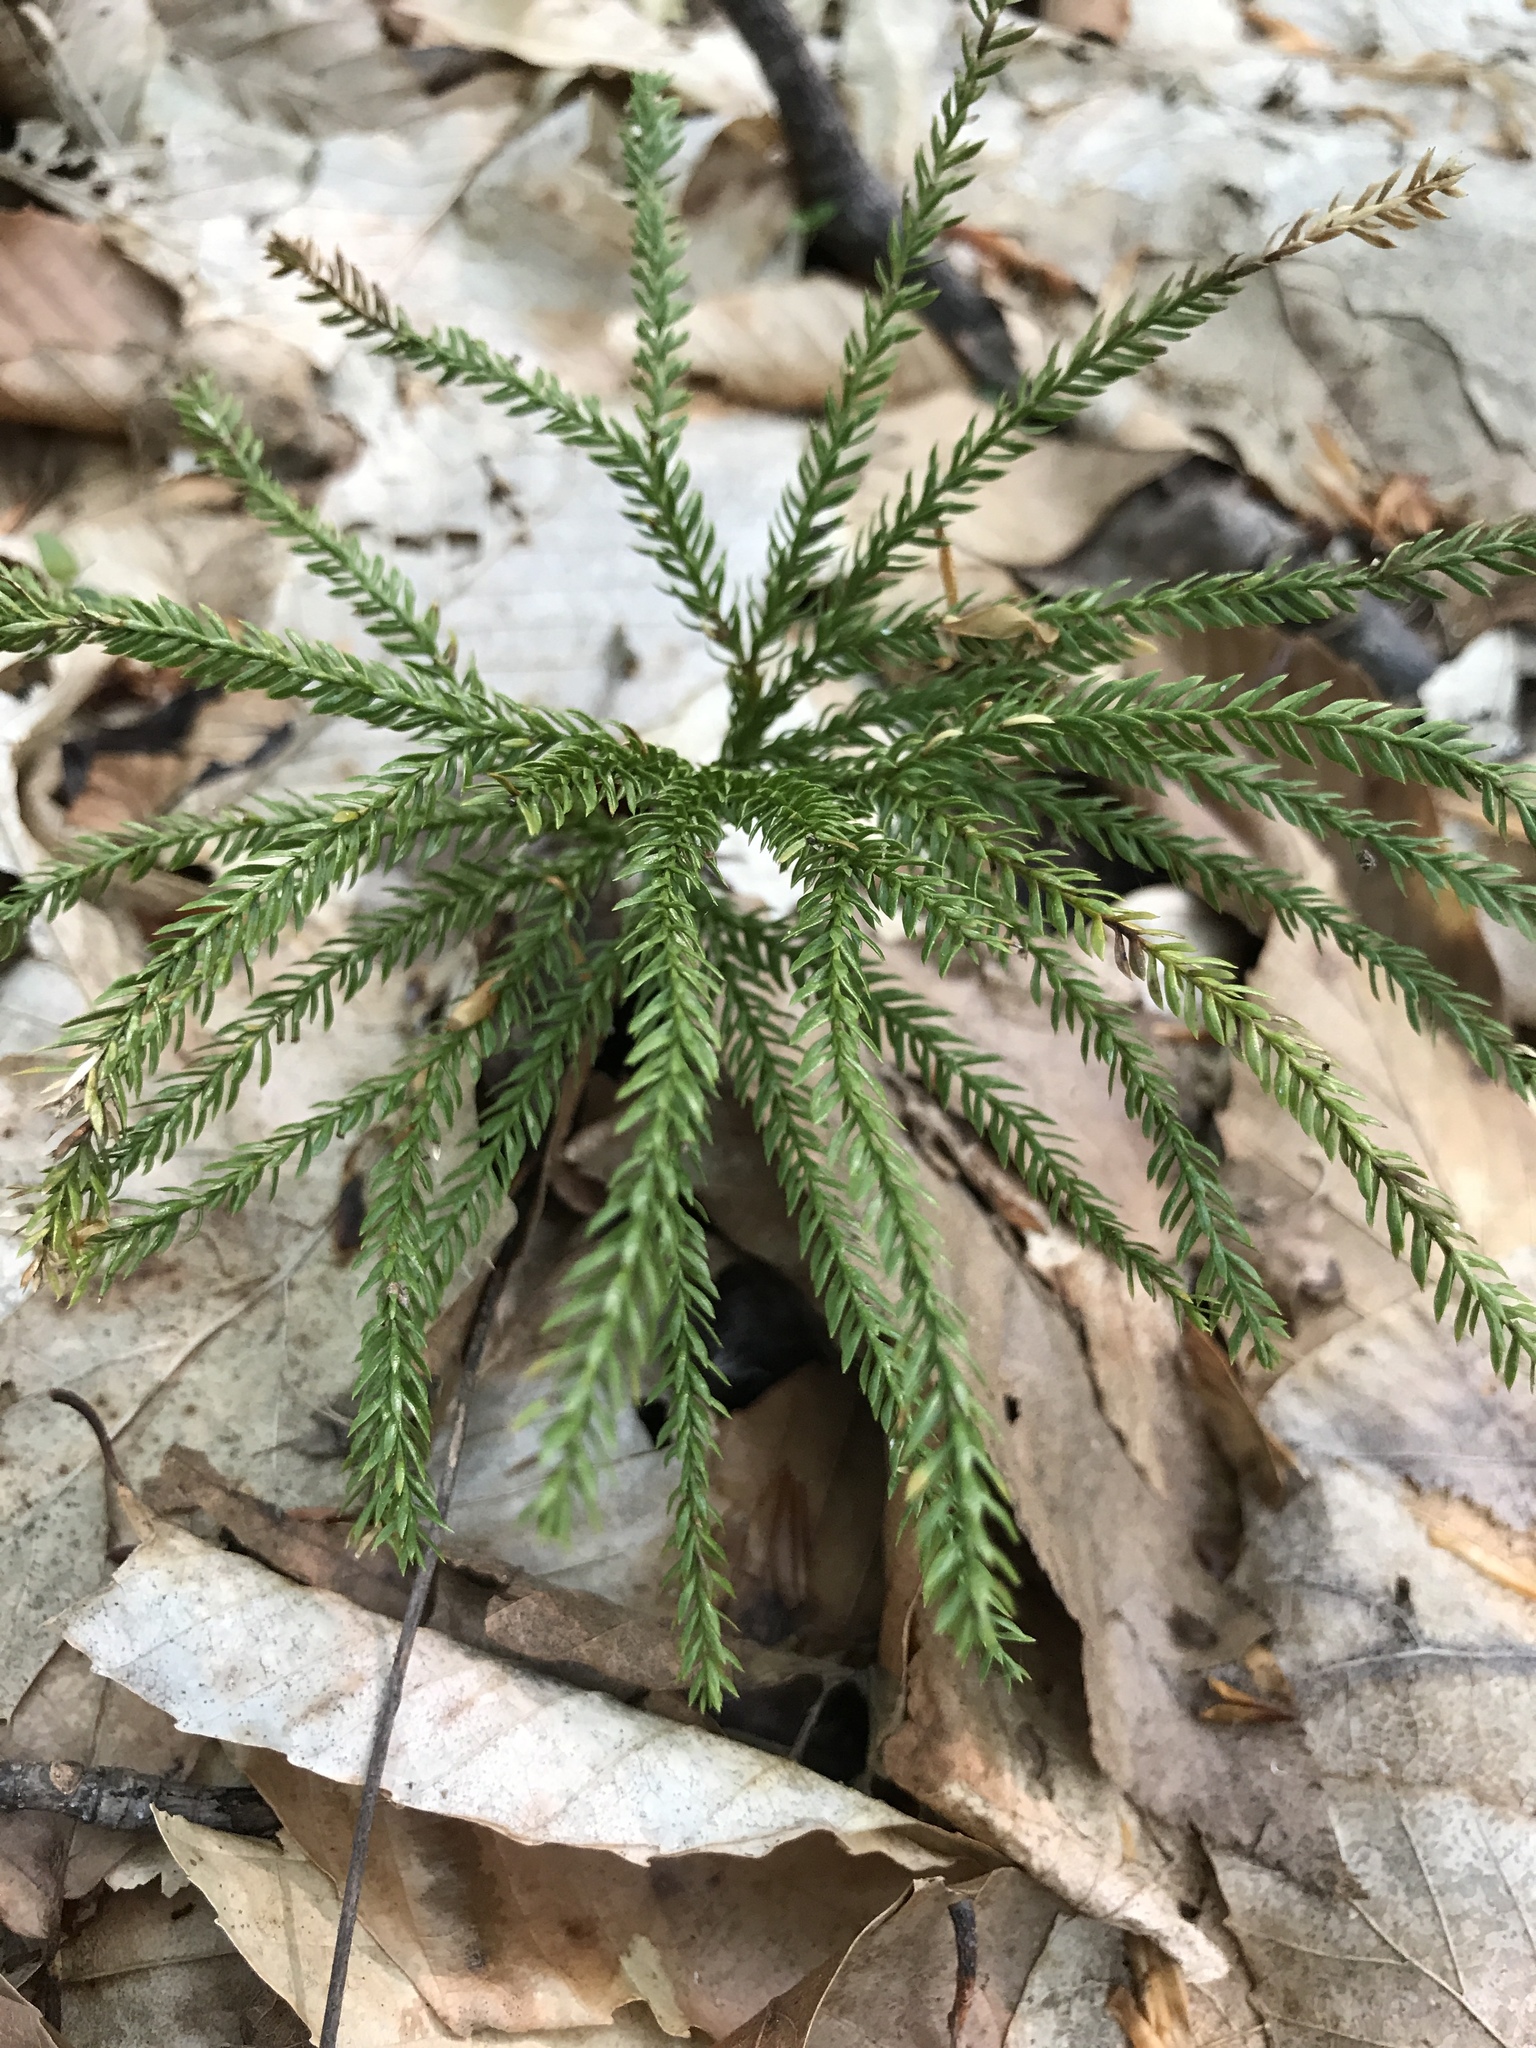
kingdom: Plantae
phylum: Tracheophyta
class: Lycopodiopsida
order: Lycopodiales
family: Lycopodiaceae
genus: Dendrolycopodium
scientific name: Dendrolycopodium obscurum
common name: Common ground-pine
